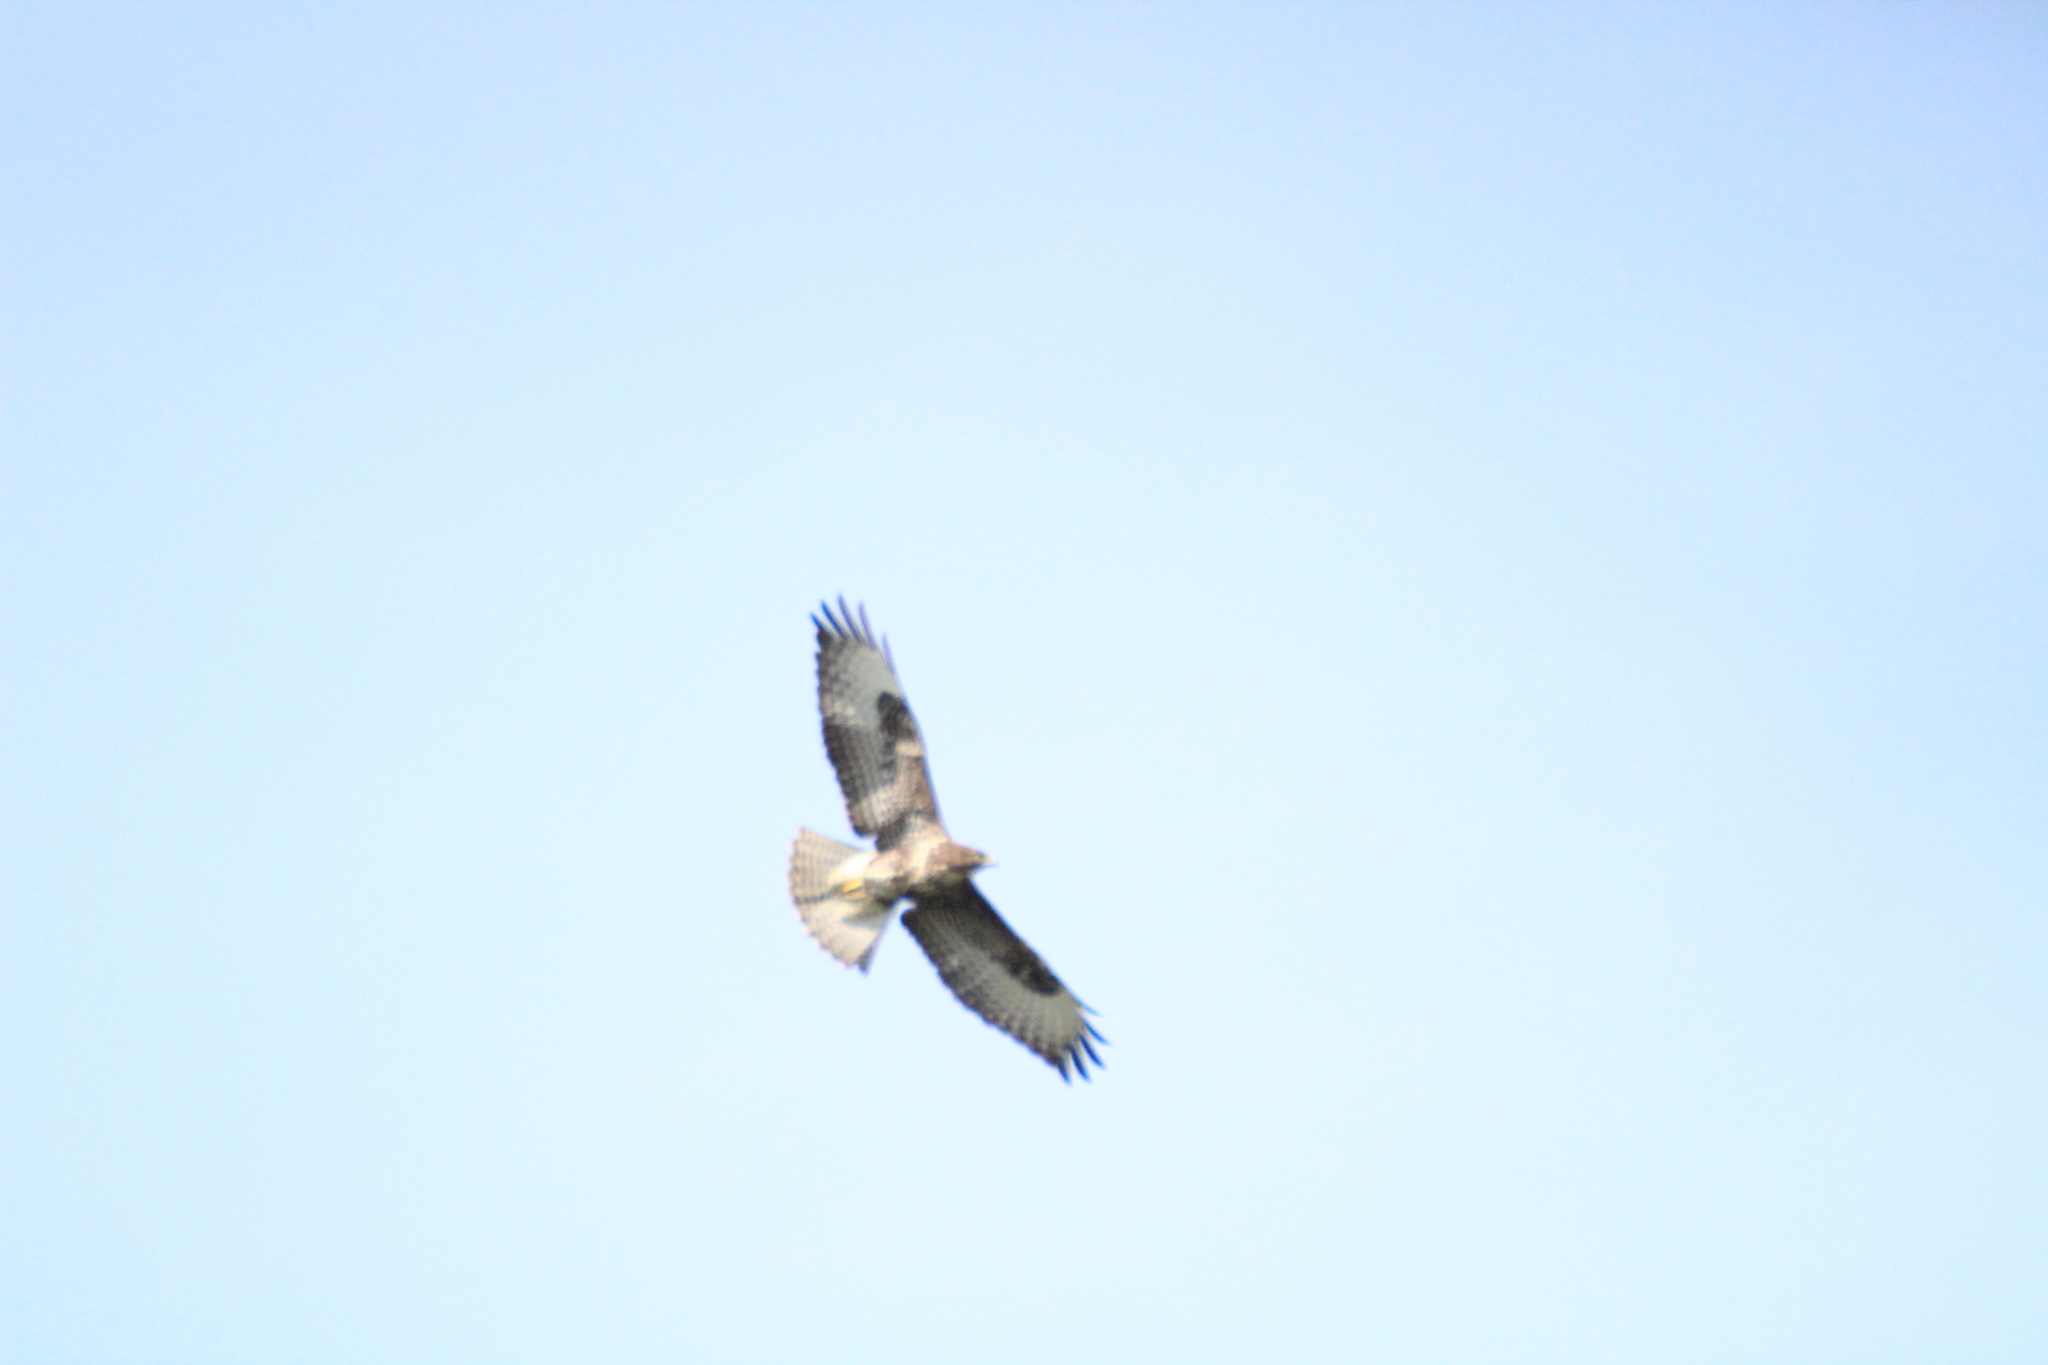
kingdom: Animalia
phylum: Chordata
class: Aves
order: Accipitriformes
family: Accipitridae
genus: Buteo
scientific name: Buteo buteo
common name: Common buzzard
